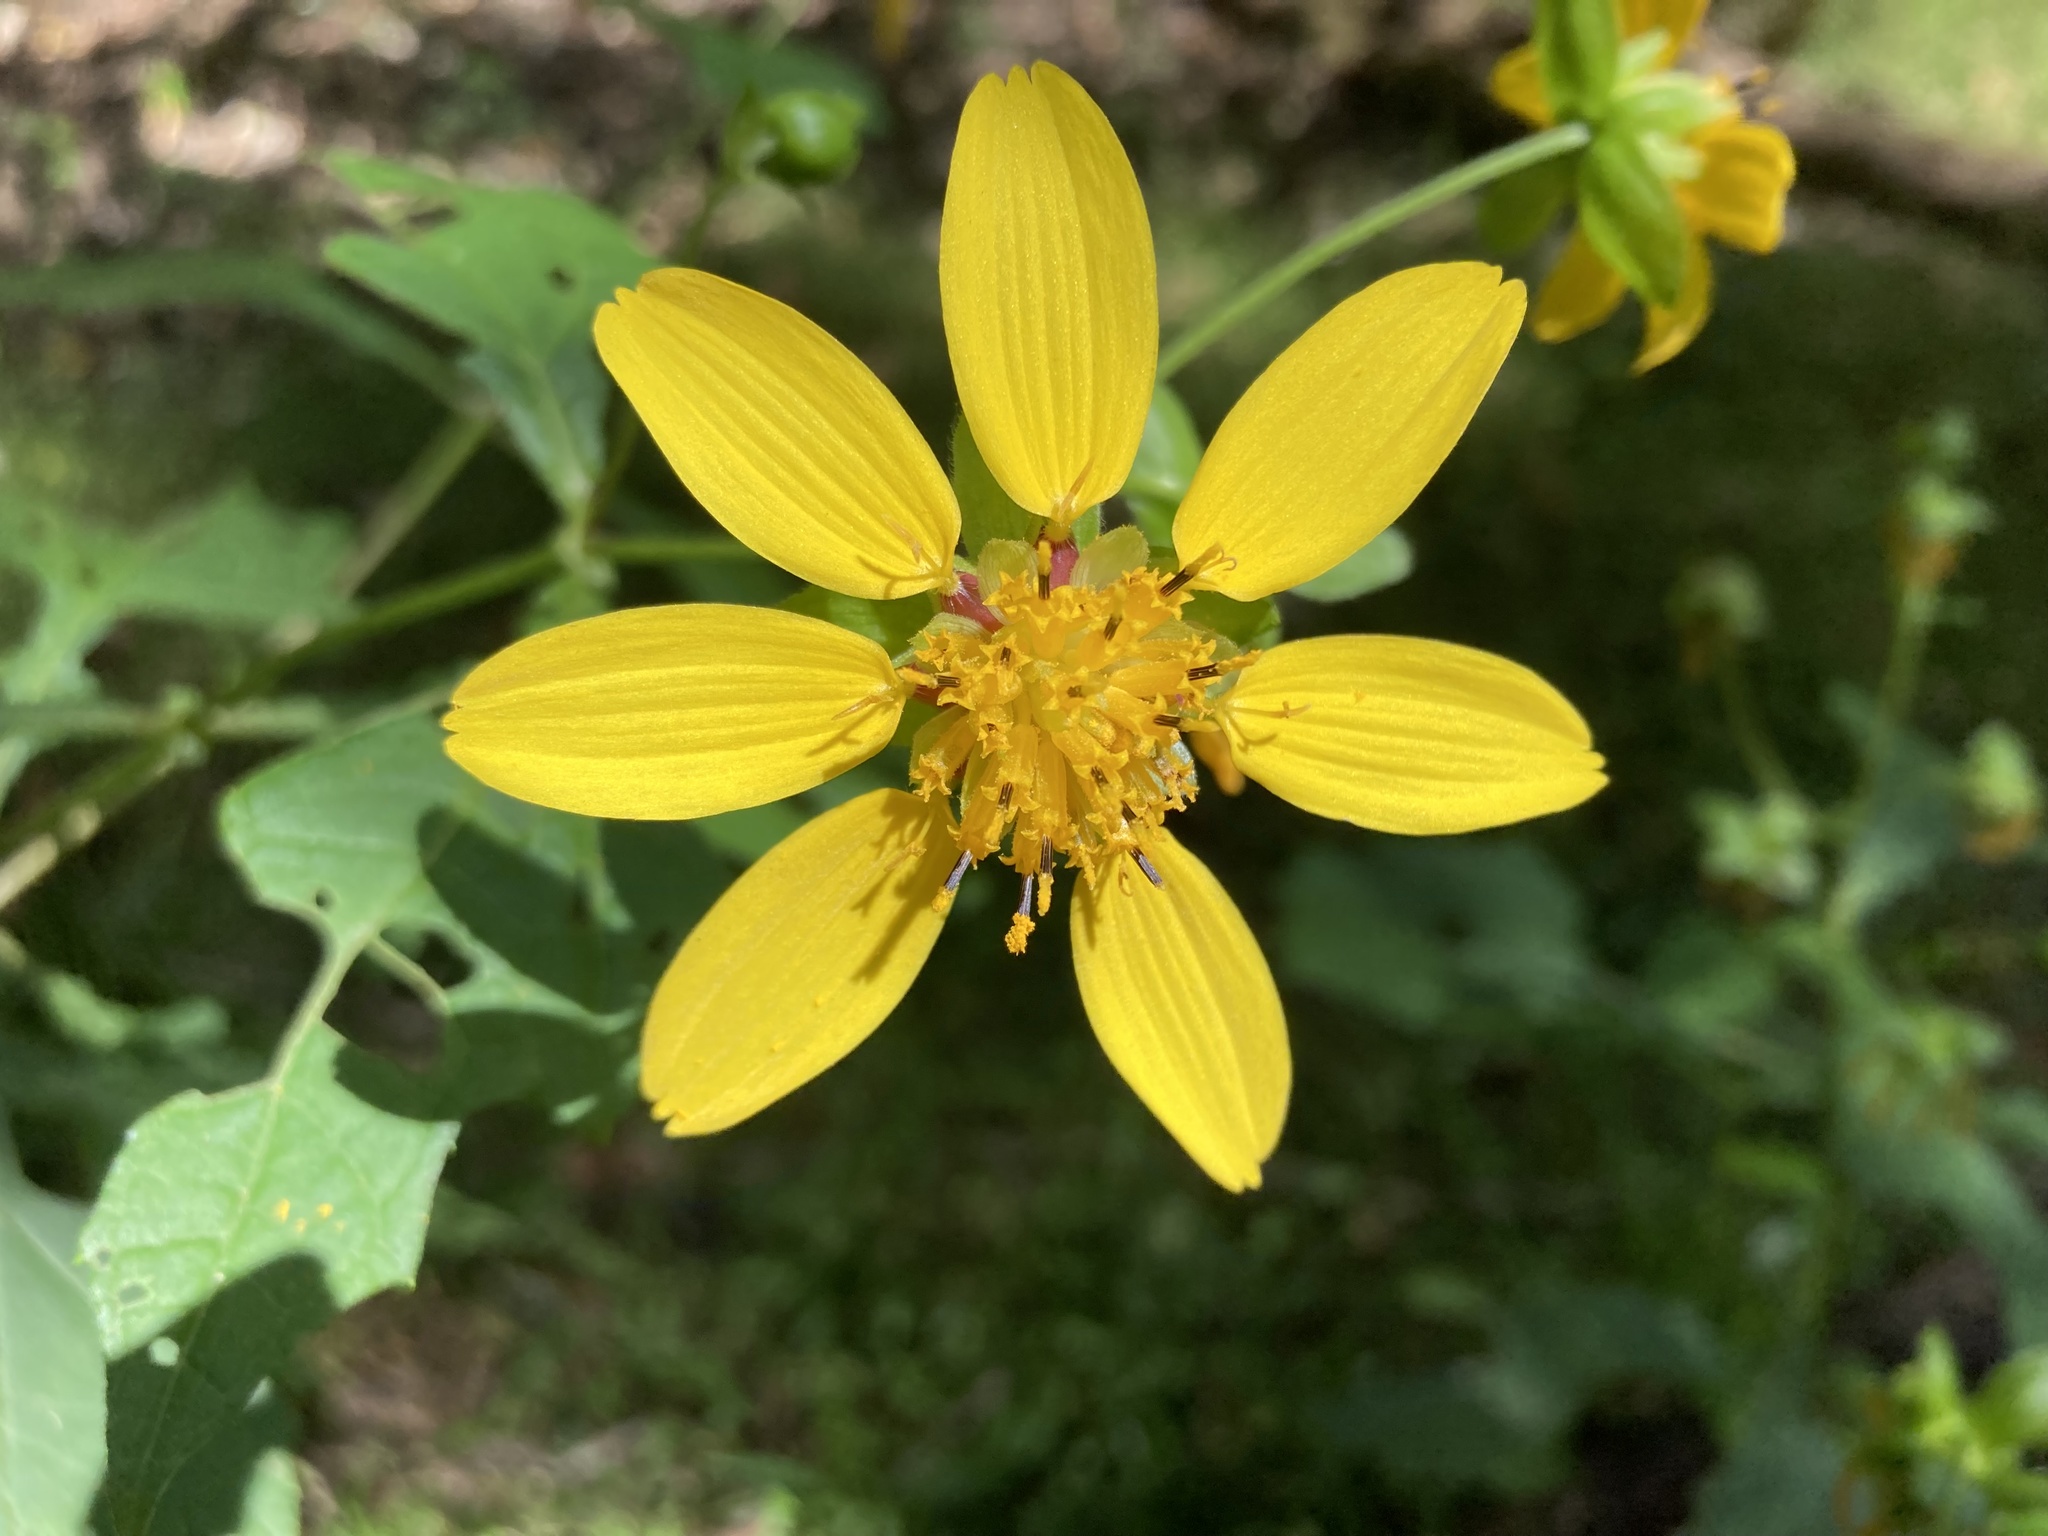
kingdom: Plantae
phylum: Tracheophyta
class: Magnoliopsida
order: Asterales
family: Asteraceae
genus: Smallanthus
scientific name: Smallanthus uvedalia
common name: Bear's-foot
